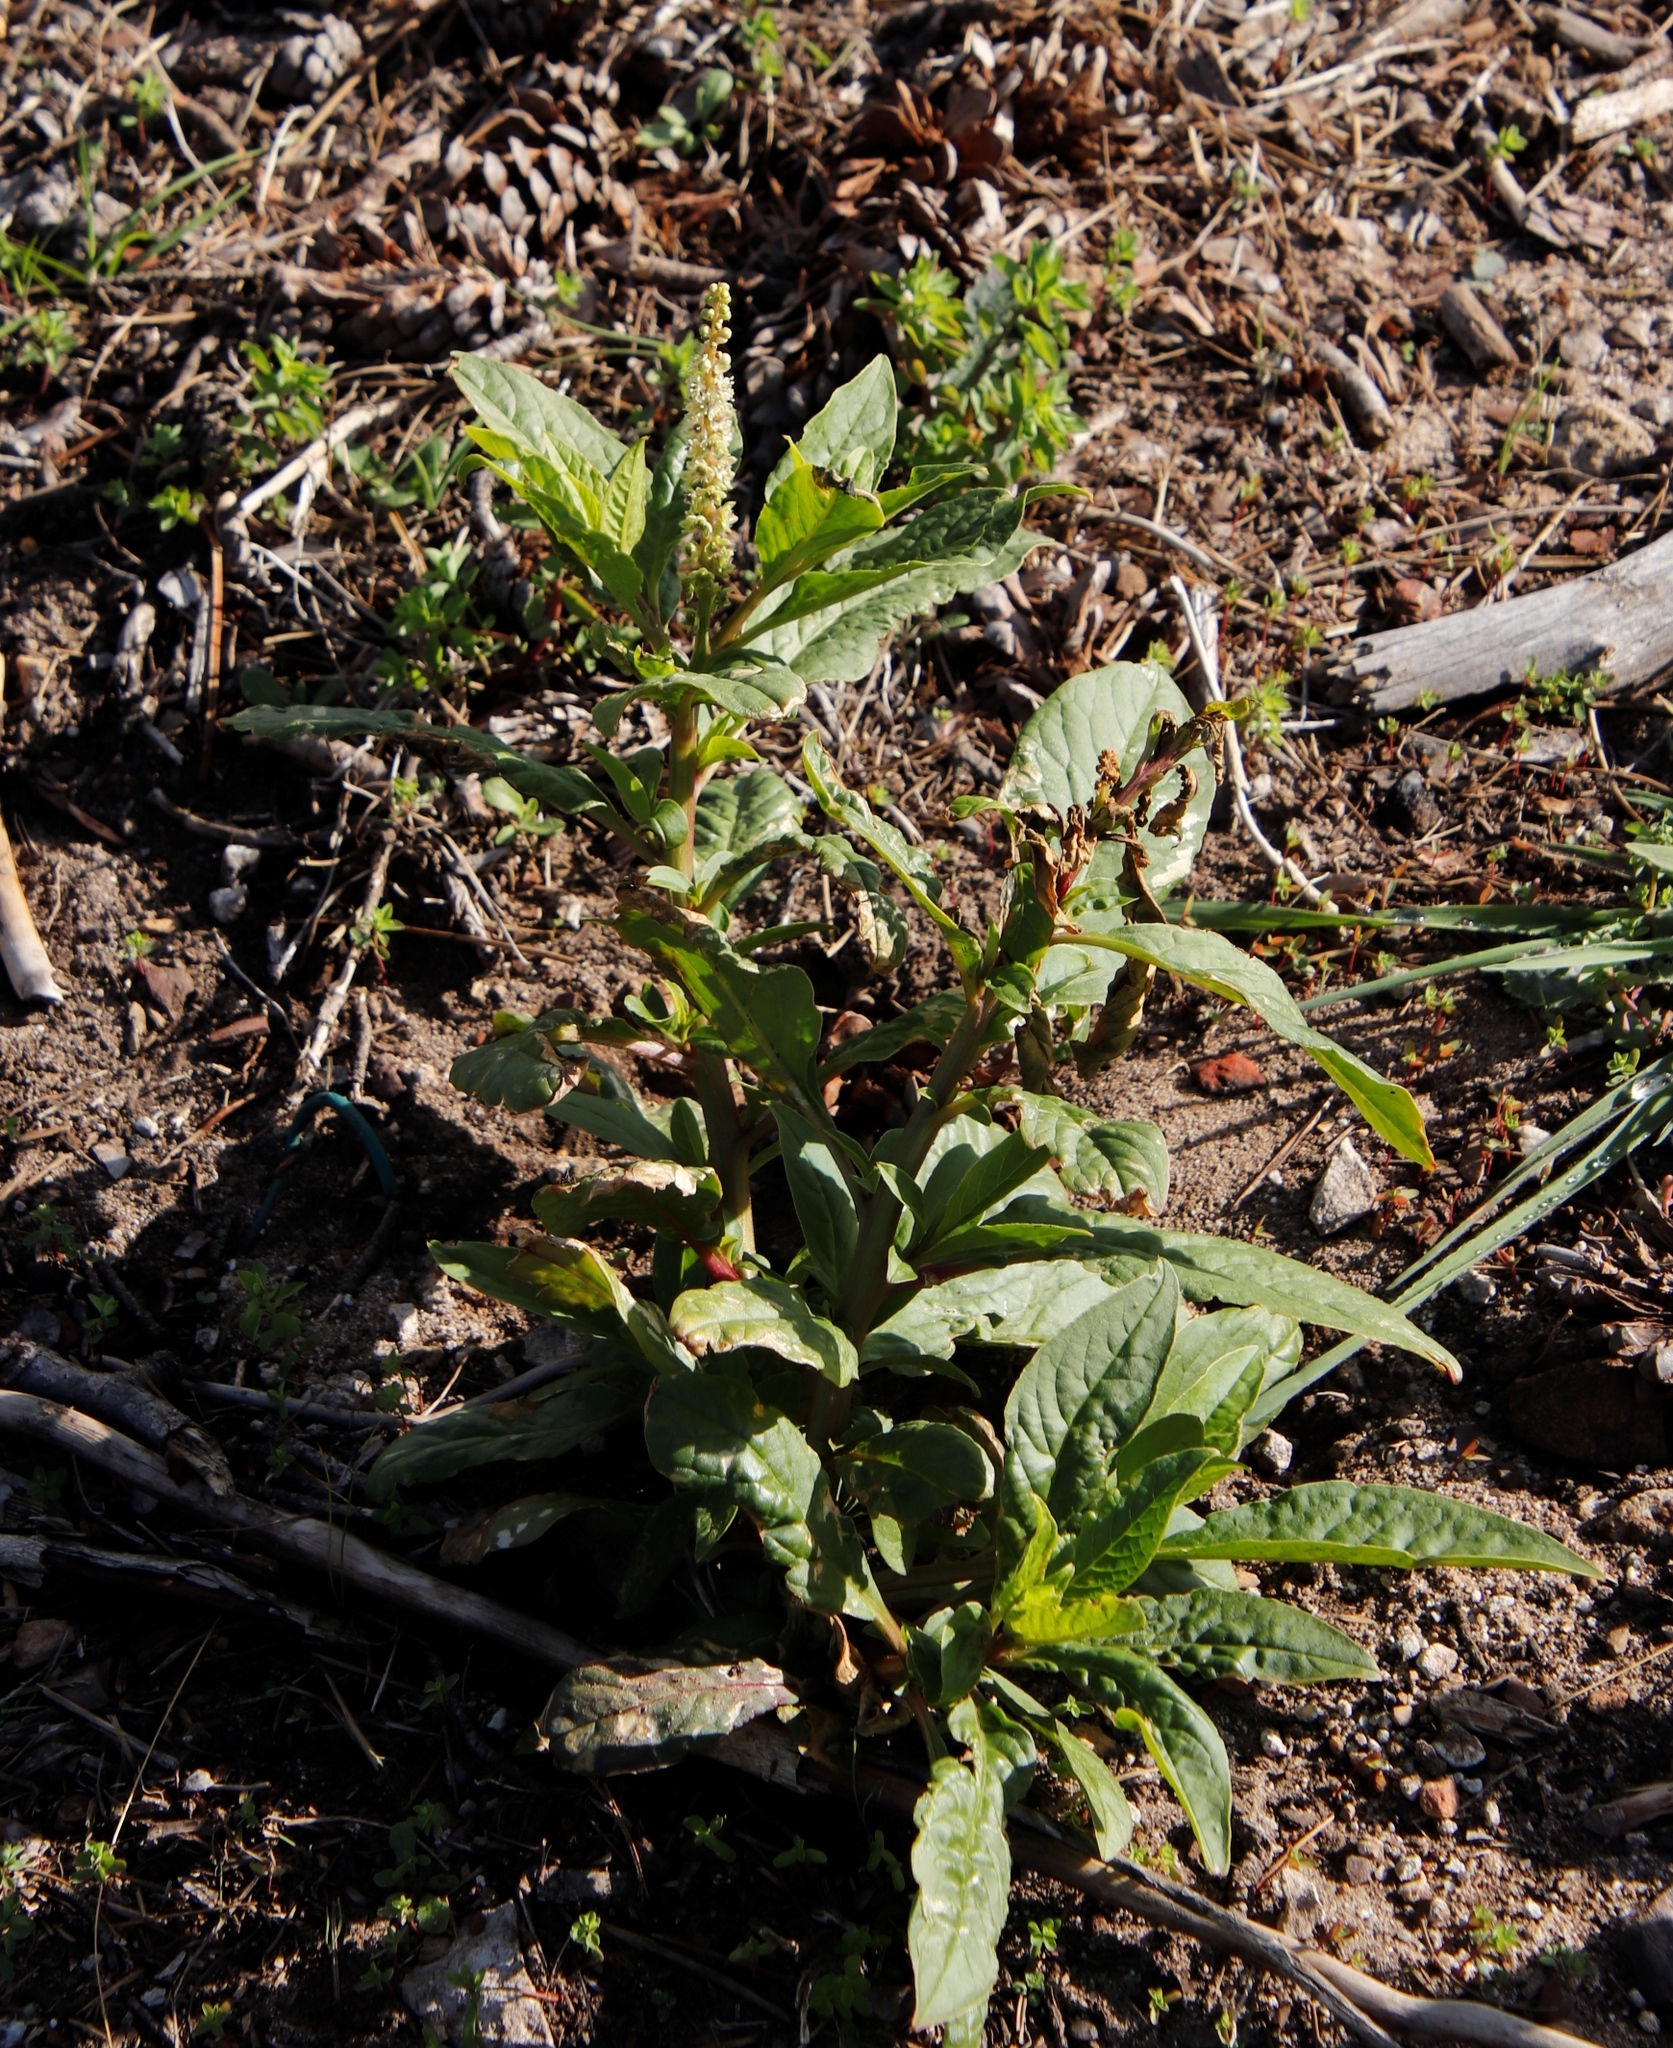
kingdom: Plantae
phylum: Tracheophyta
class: Magnoliopsida
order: Caryophyllales
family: Phytolaccaceae
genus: Phytolacca
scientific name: Phytolacca icosandra
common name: Button pokeweed
